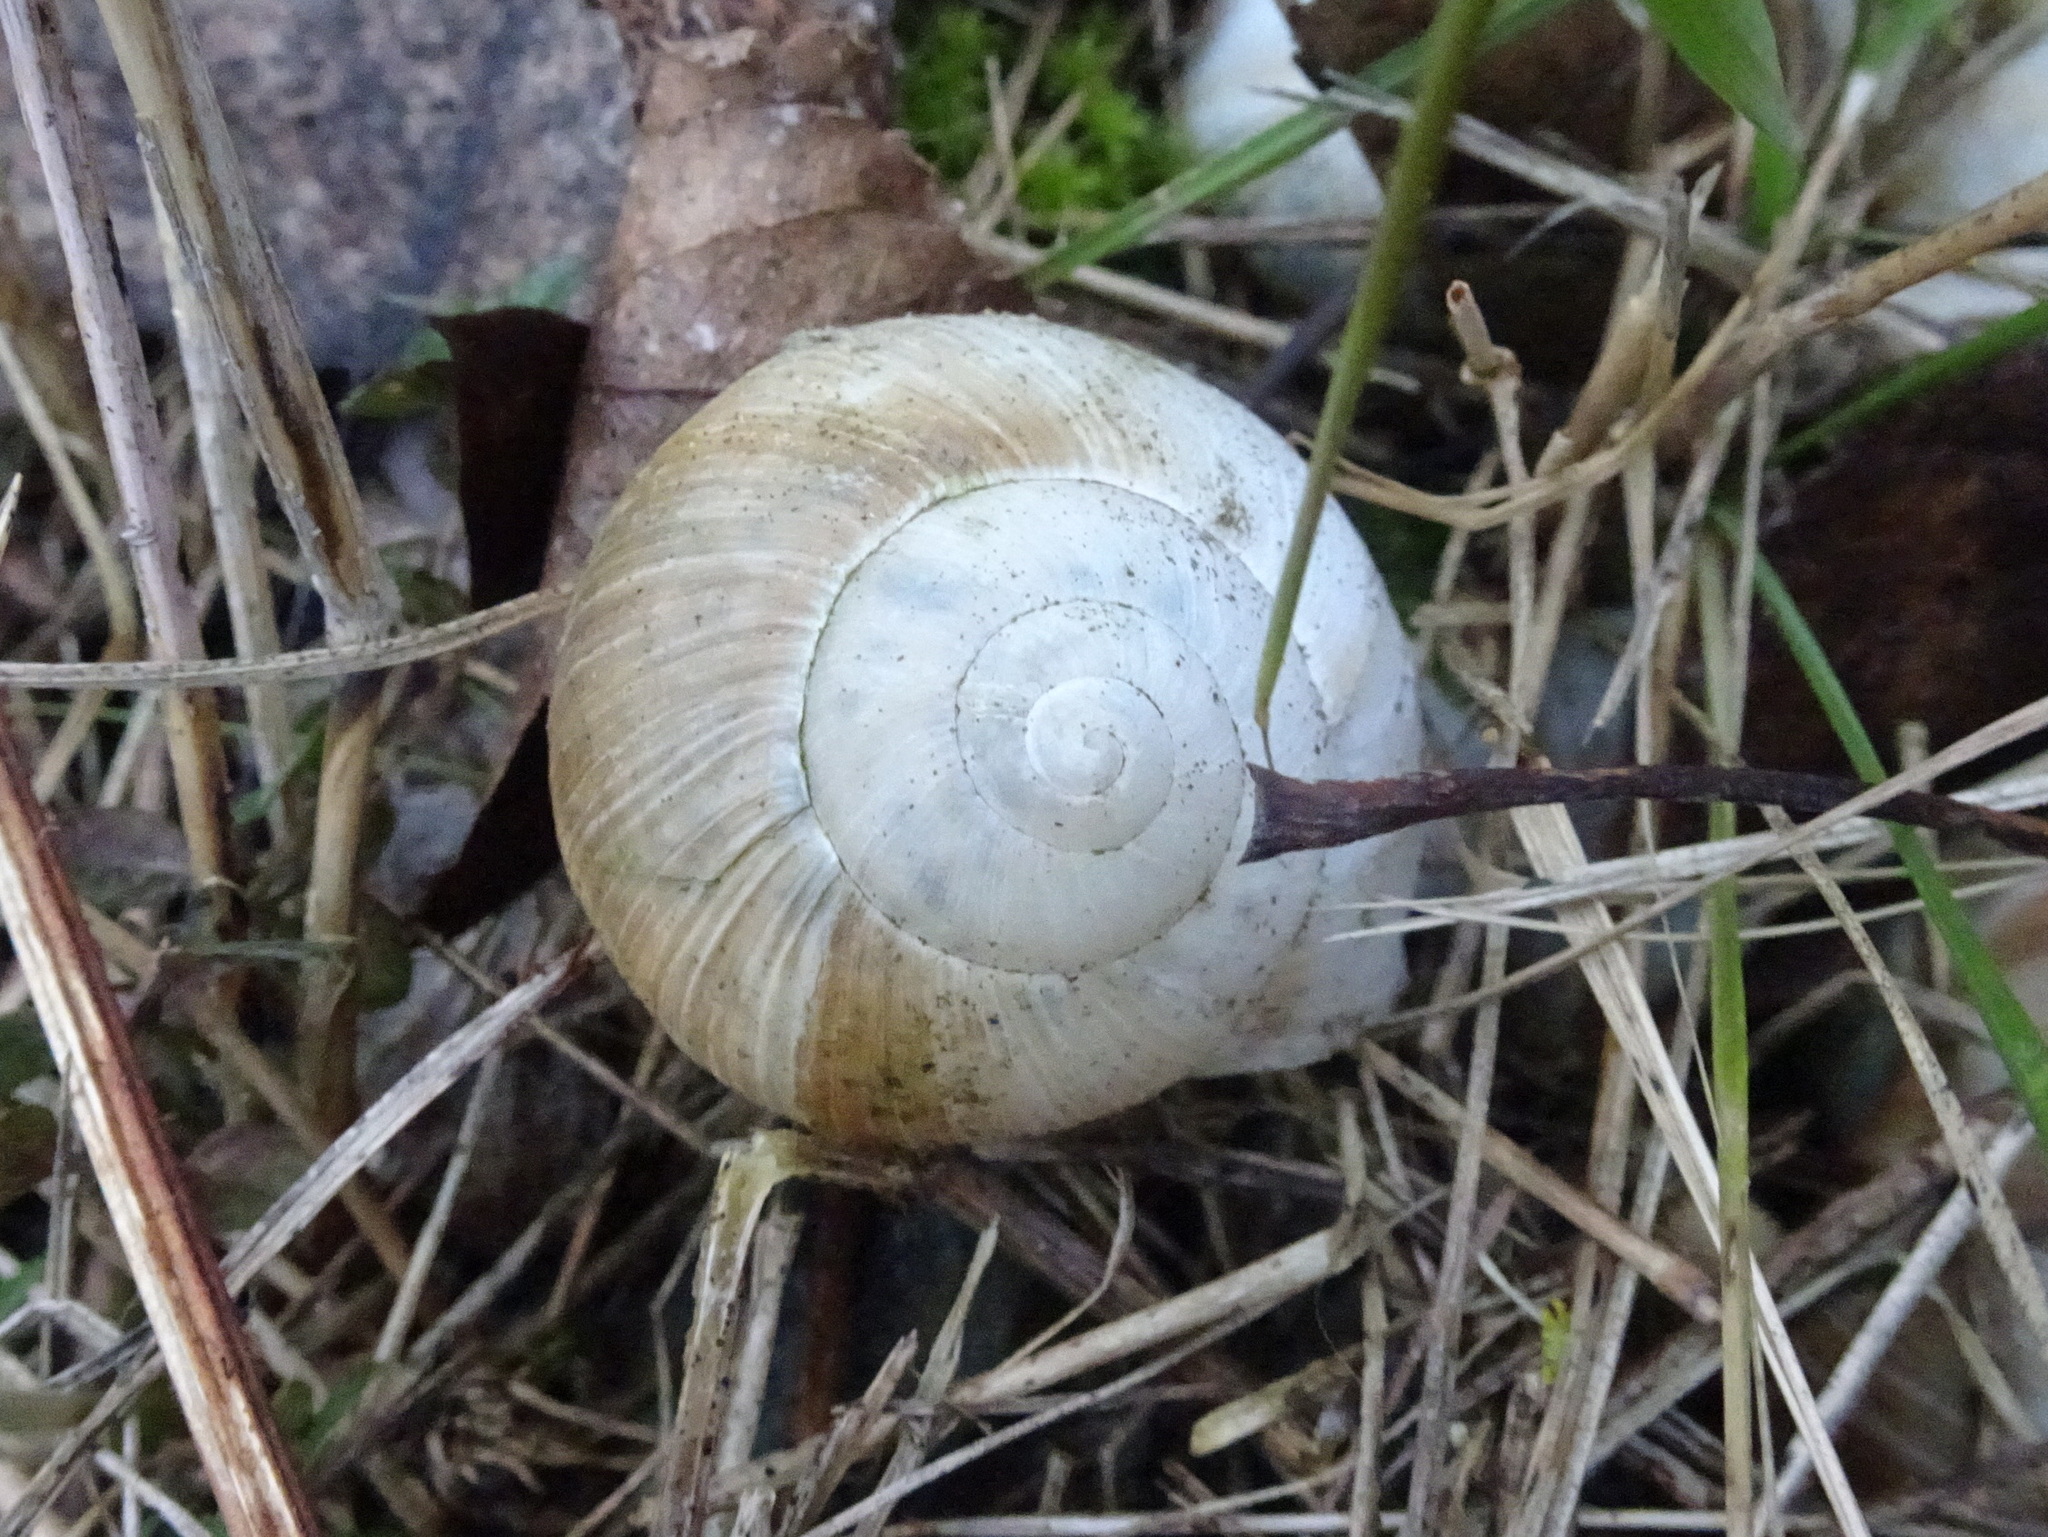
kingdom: Animalia
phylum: Mollusca
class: Gastropoda
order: Stylommatophora
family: Helicidae
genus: Helix
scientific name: Helix pomatia
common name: Roman snail
